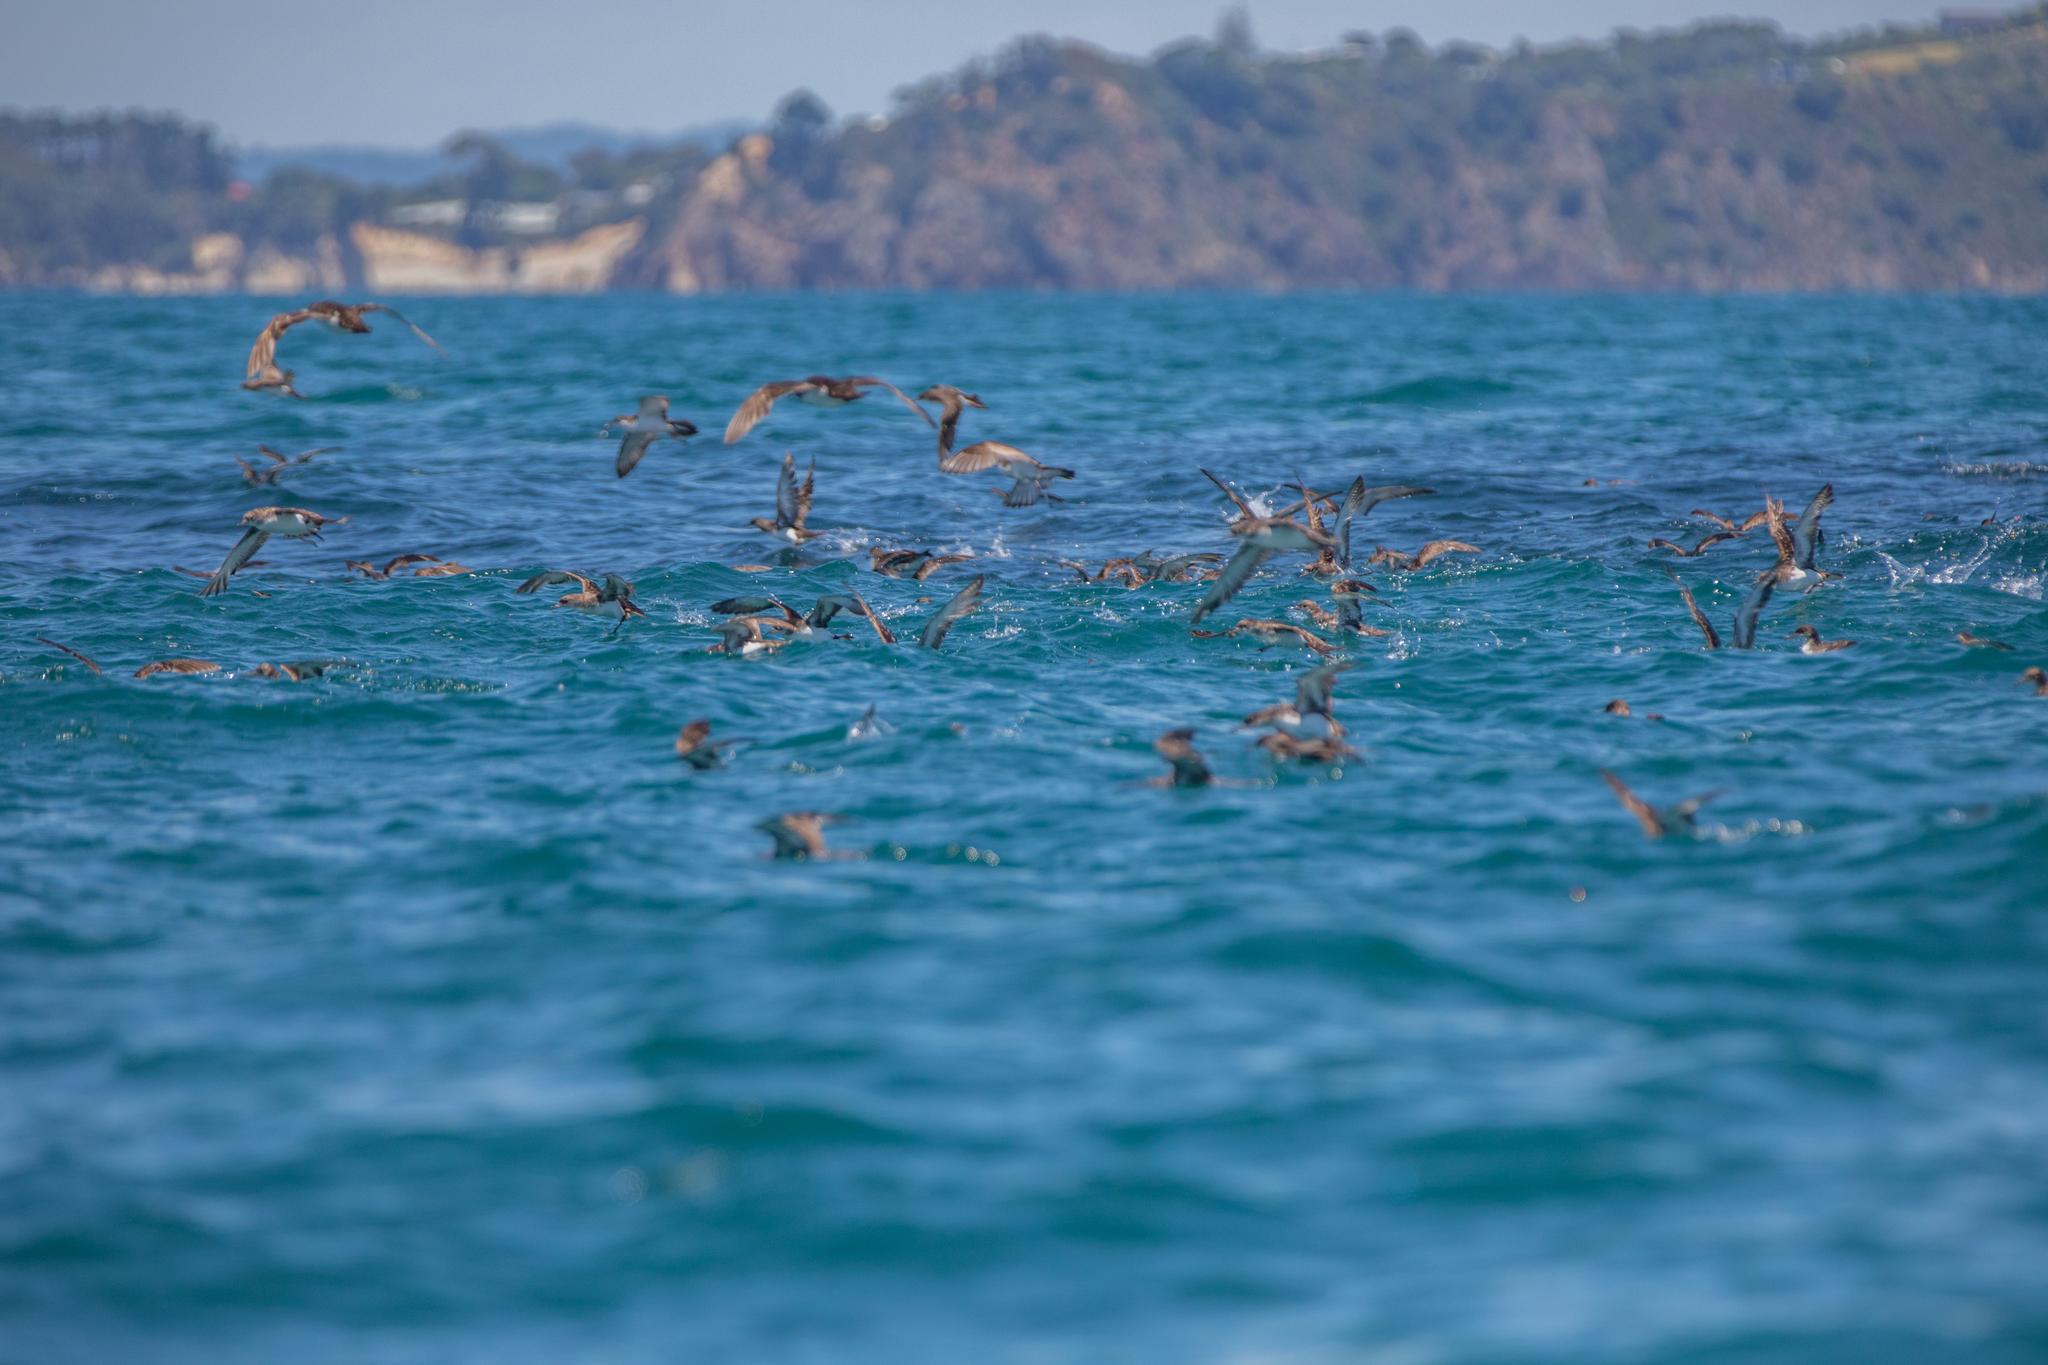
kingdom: Animalia
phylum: Chordata
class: Aves
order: Procellariiformes
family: Procellariidae
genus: Puffinus
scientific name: Puffinus gavia
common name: Fluttering shearwater
